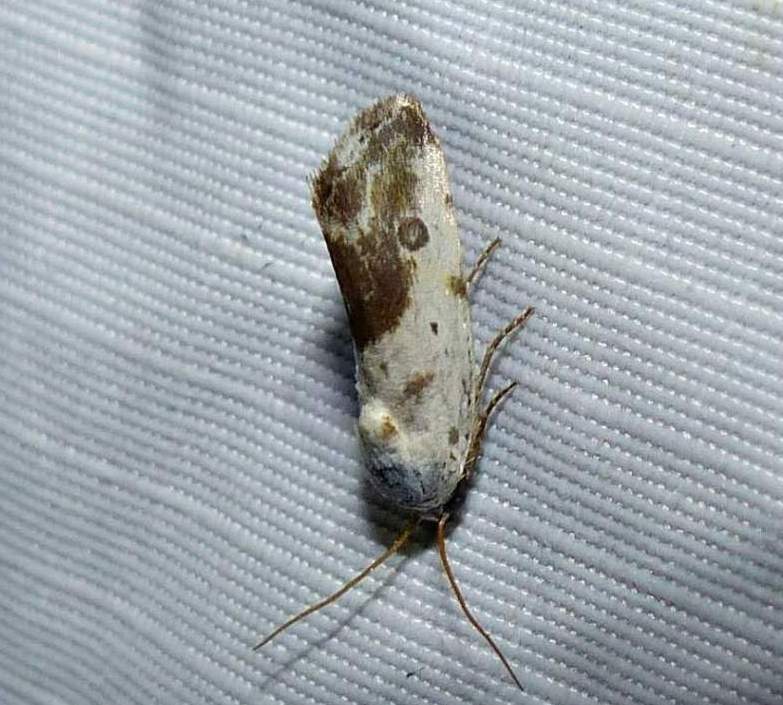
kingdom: Animalia
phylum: Arthropoda
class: Insecta
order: Lepidoptera
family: Noctuidae
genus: Acontia
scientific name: Acontia candefacta
